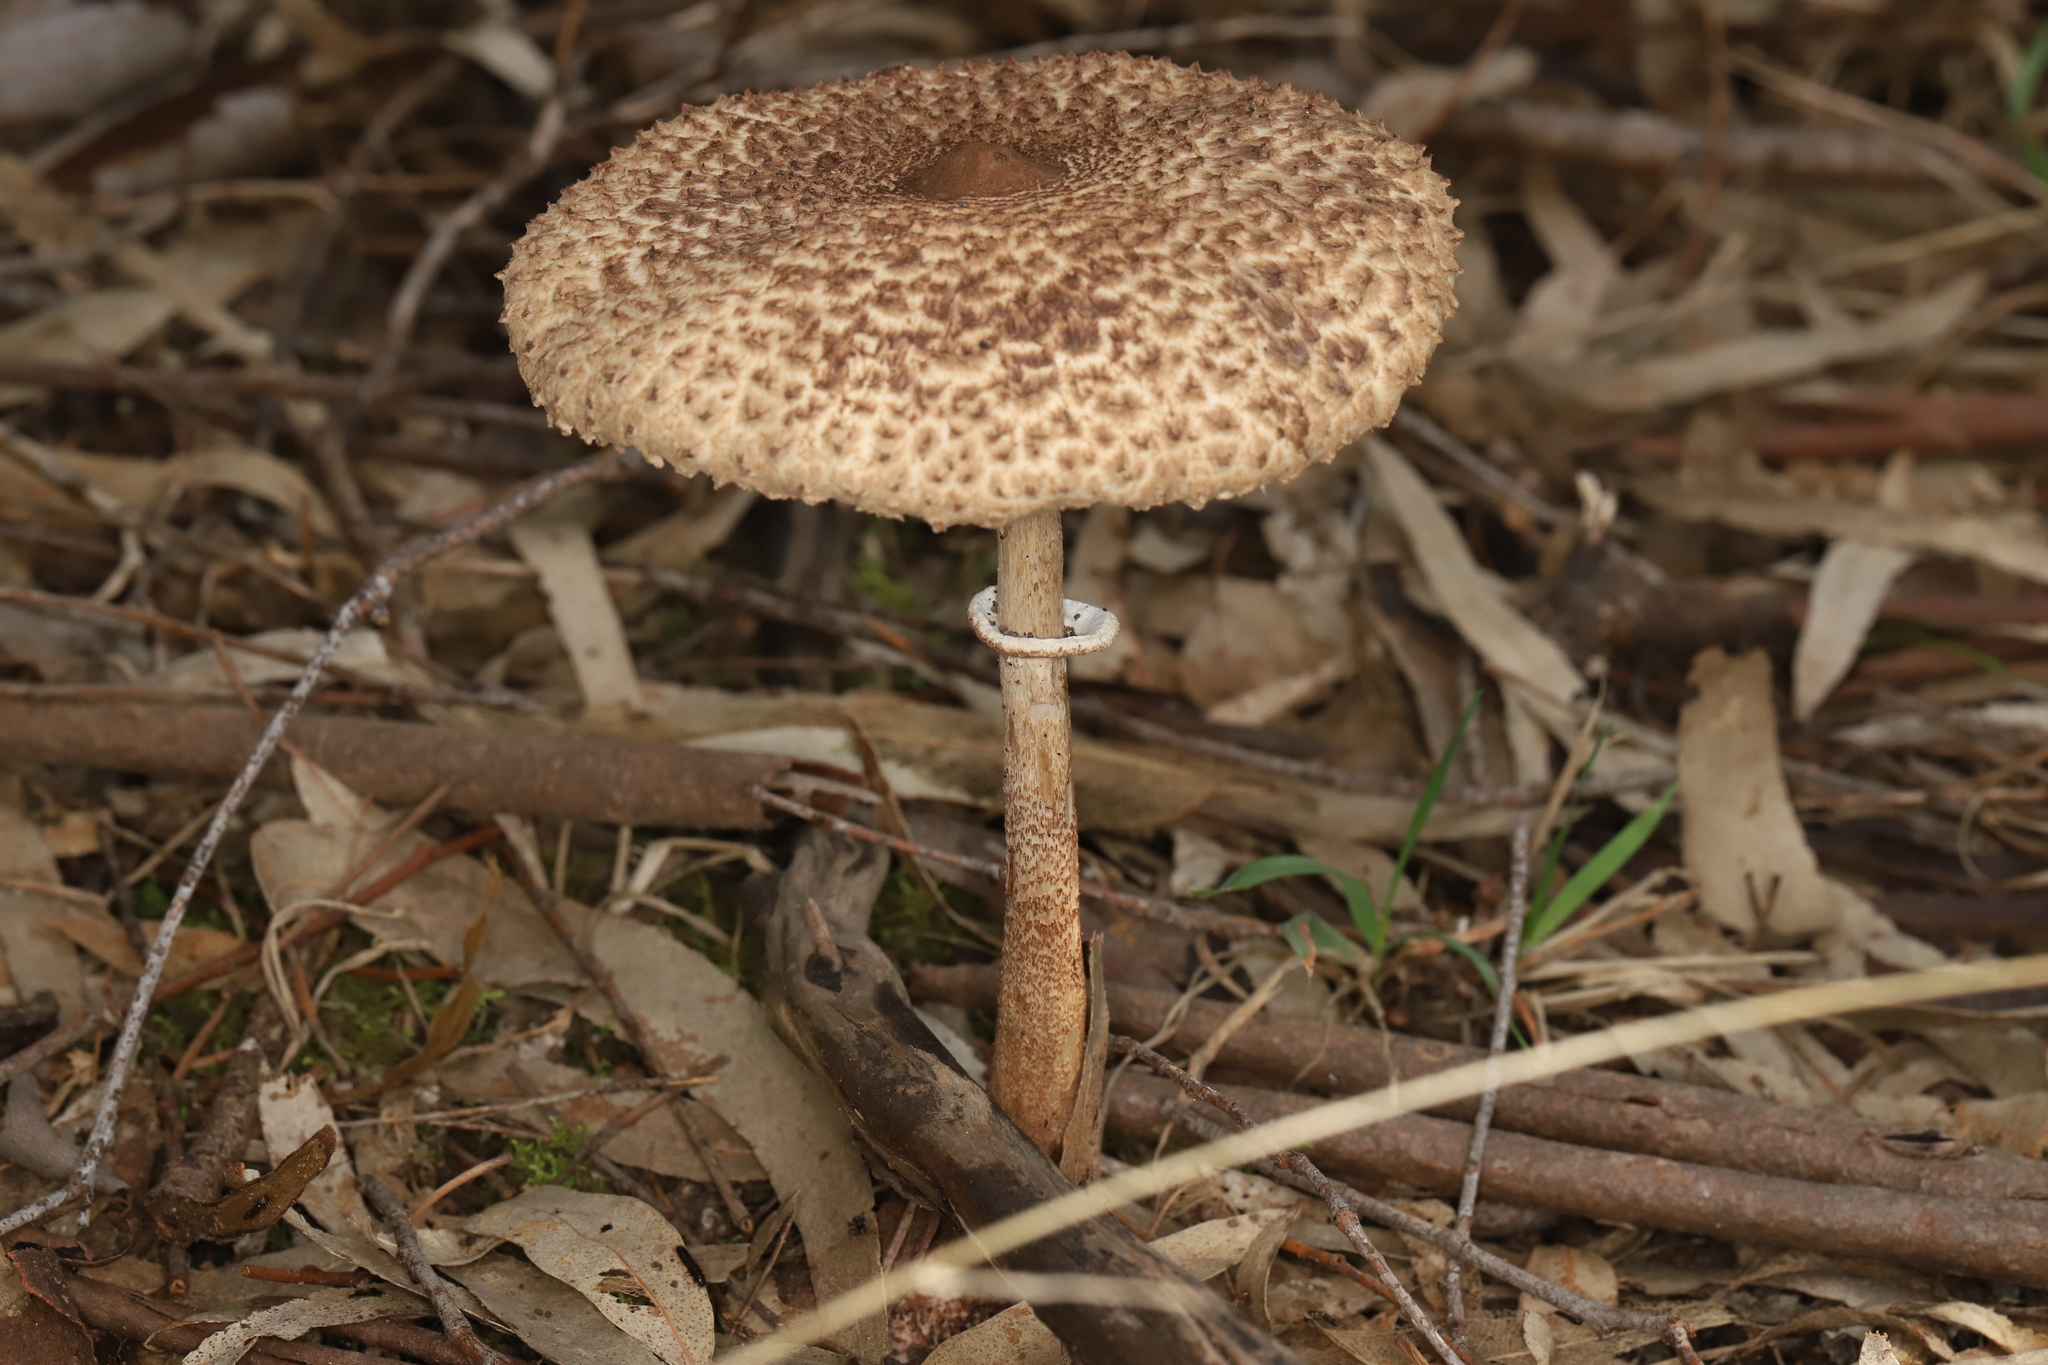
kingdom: Fungi
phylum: Basidiomycota
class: Agaricomycetes
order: Agaricales
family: Agaricaceae
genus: Macrolepiota
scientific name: Macrolepiota clelandii
